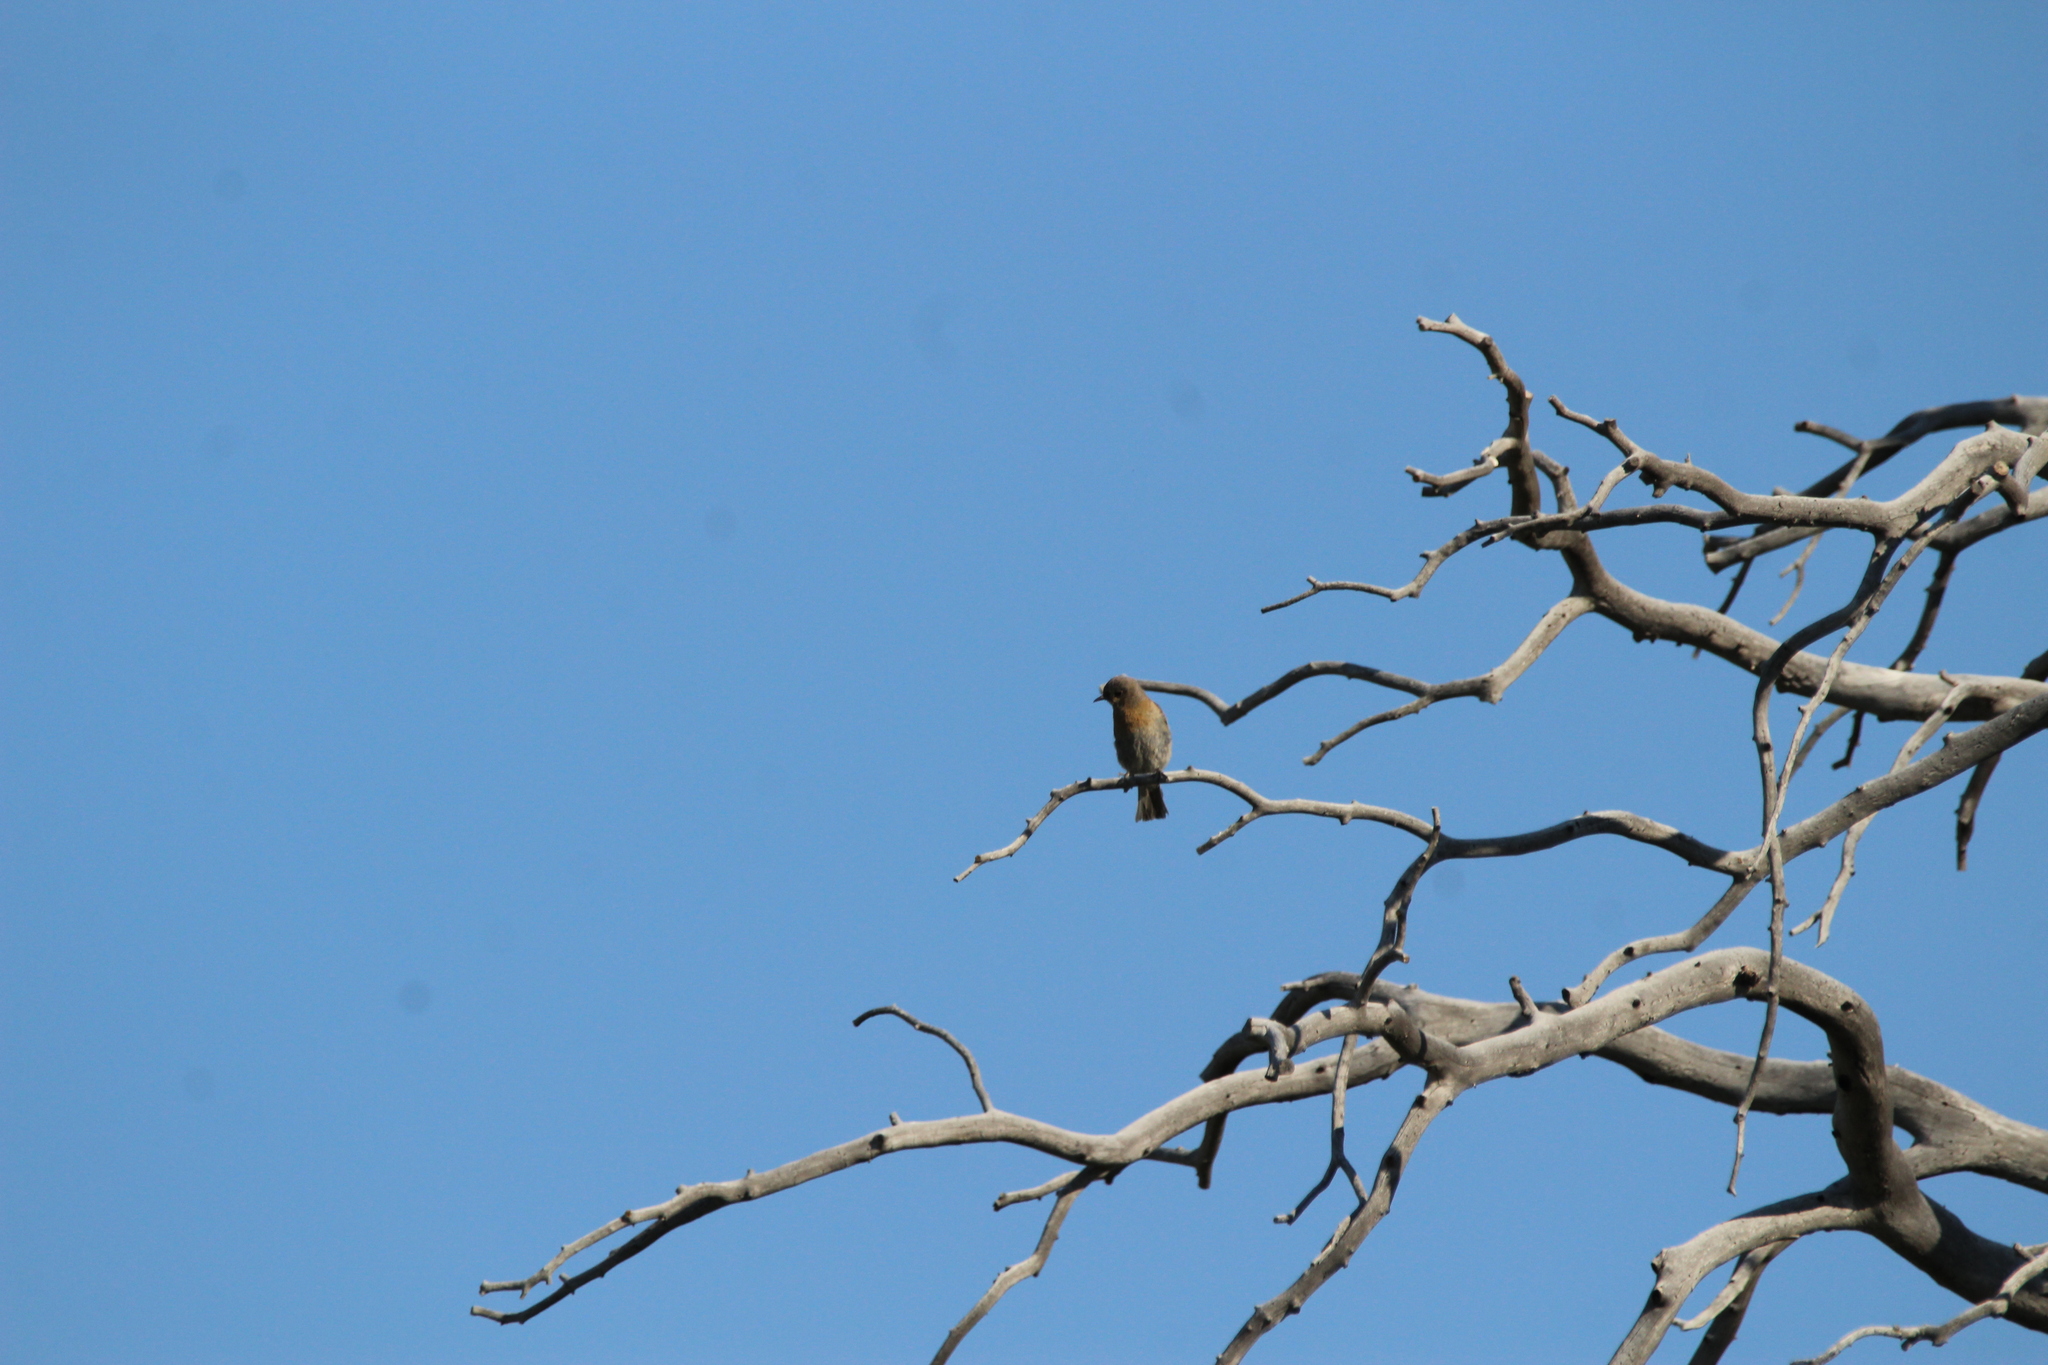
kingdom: Animalia
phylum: Chordata
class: Aves
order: Passeriformes
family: Turdidae
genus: Sialia
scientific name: Sialia mexicana
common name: Western bluebird
